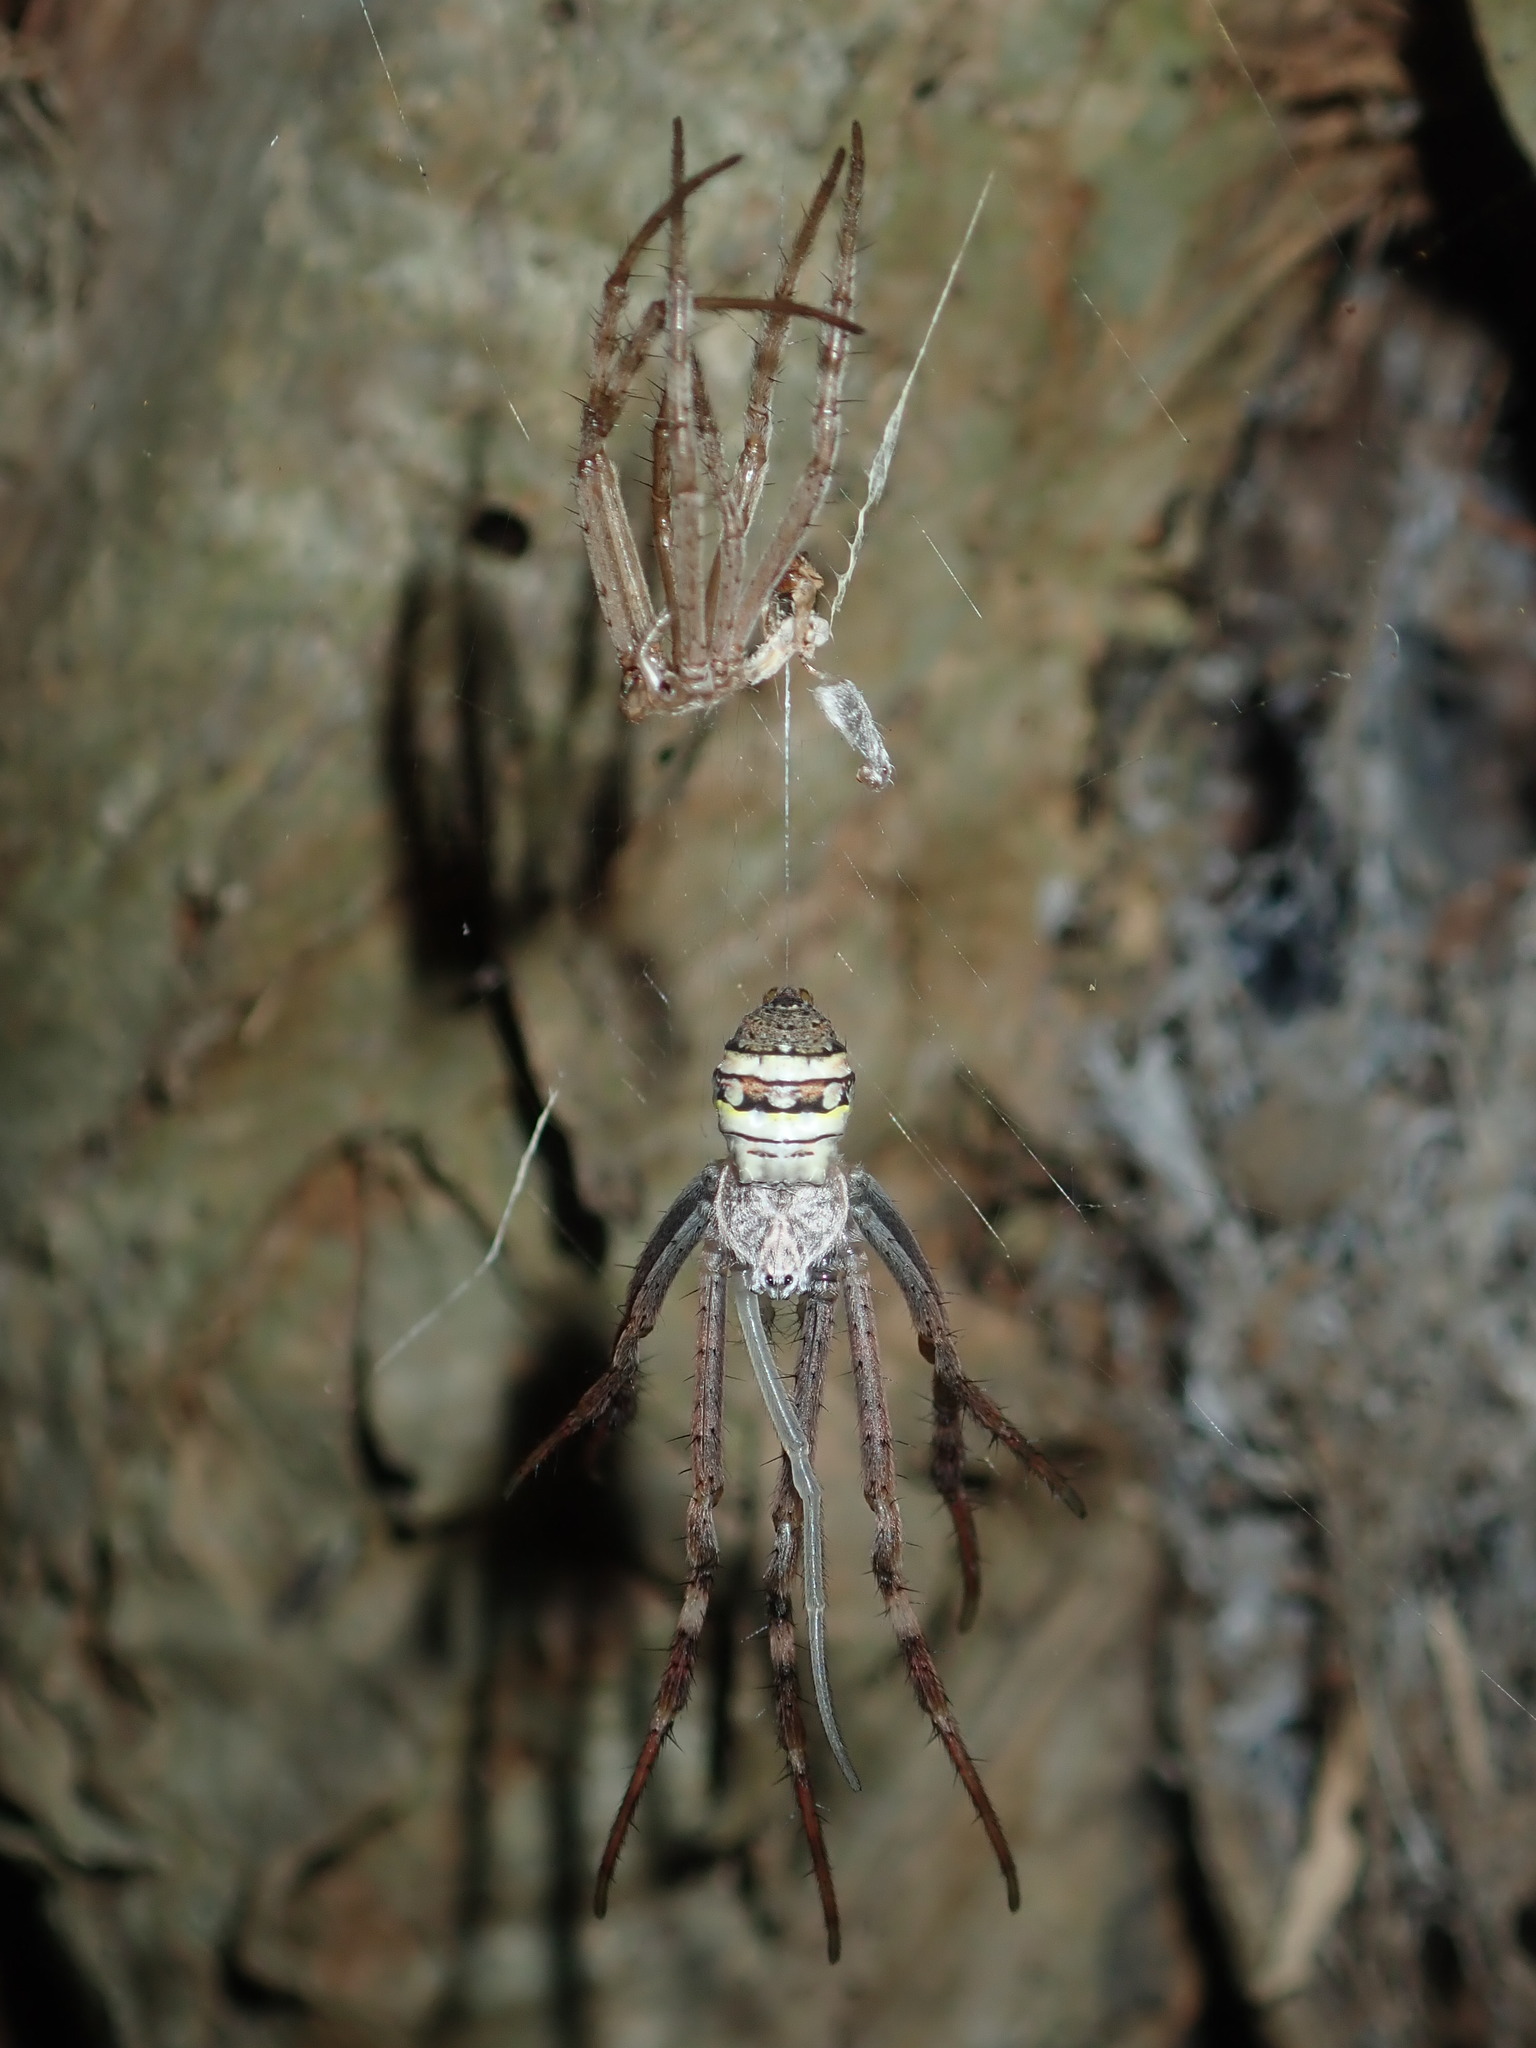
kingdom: Animalia
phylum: Arthropoda
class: Arachnida
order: Araneae
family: Araneidae
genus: Argiope
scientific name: Argiope keyserlingi
